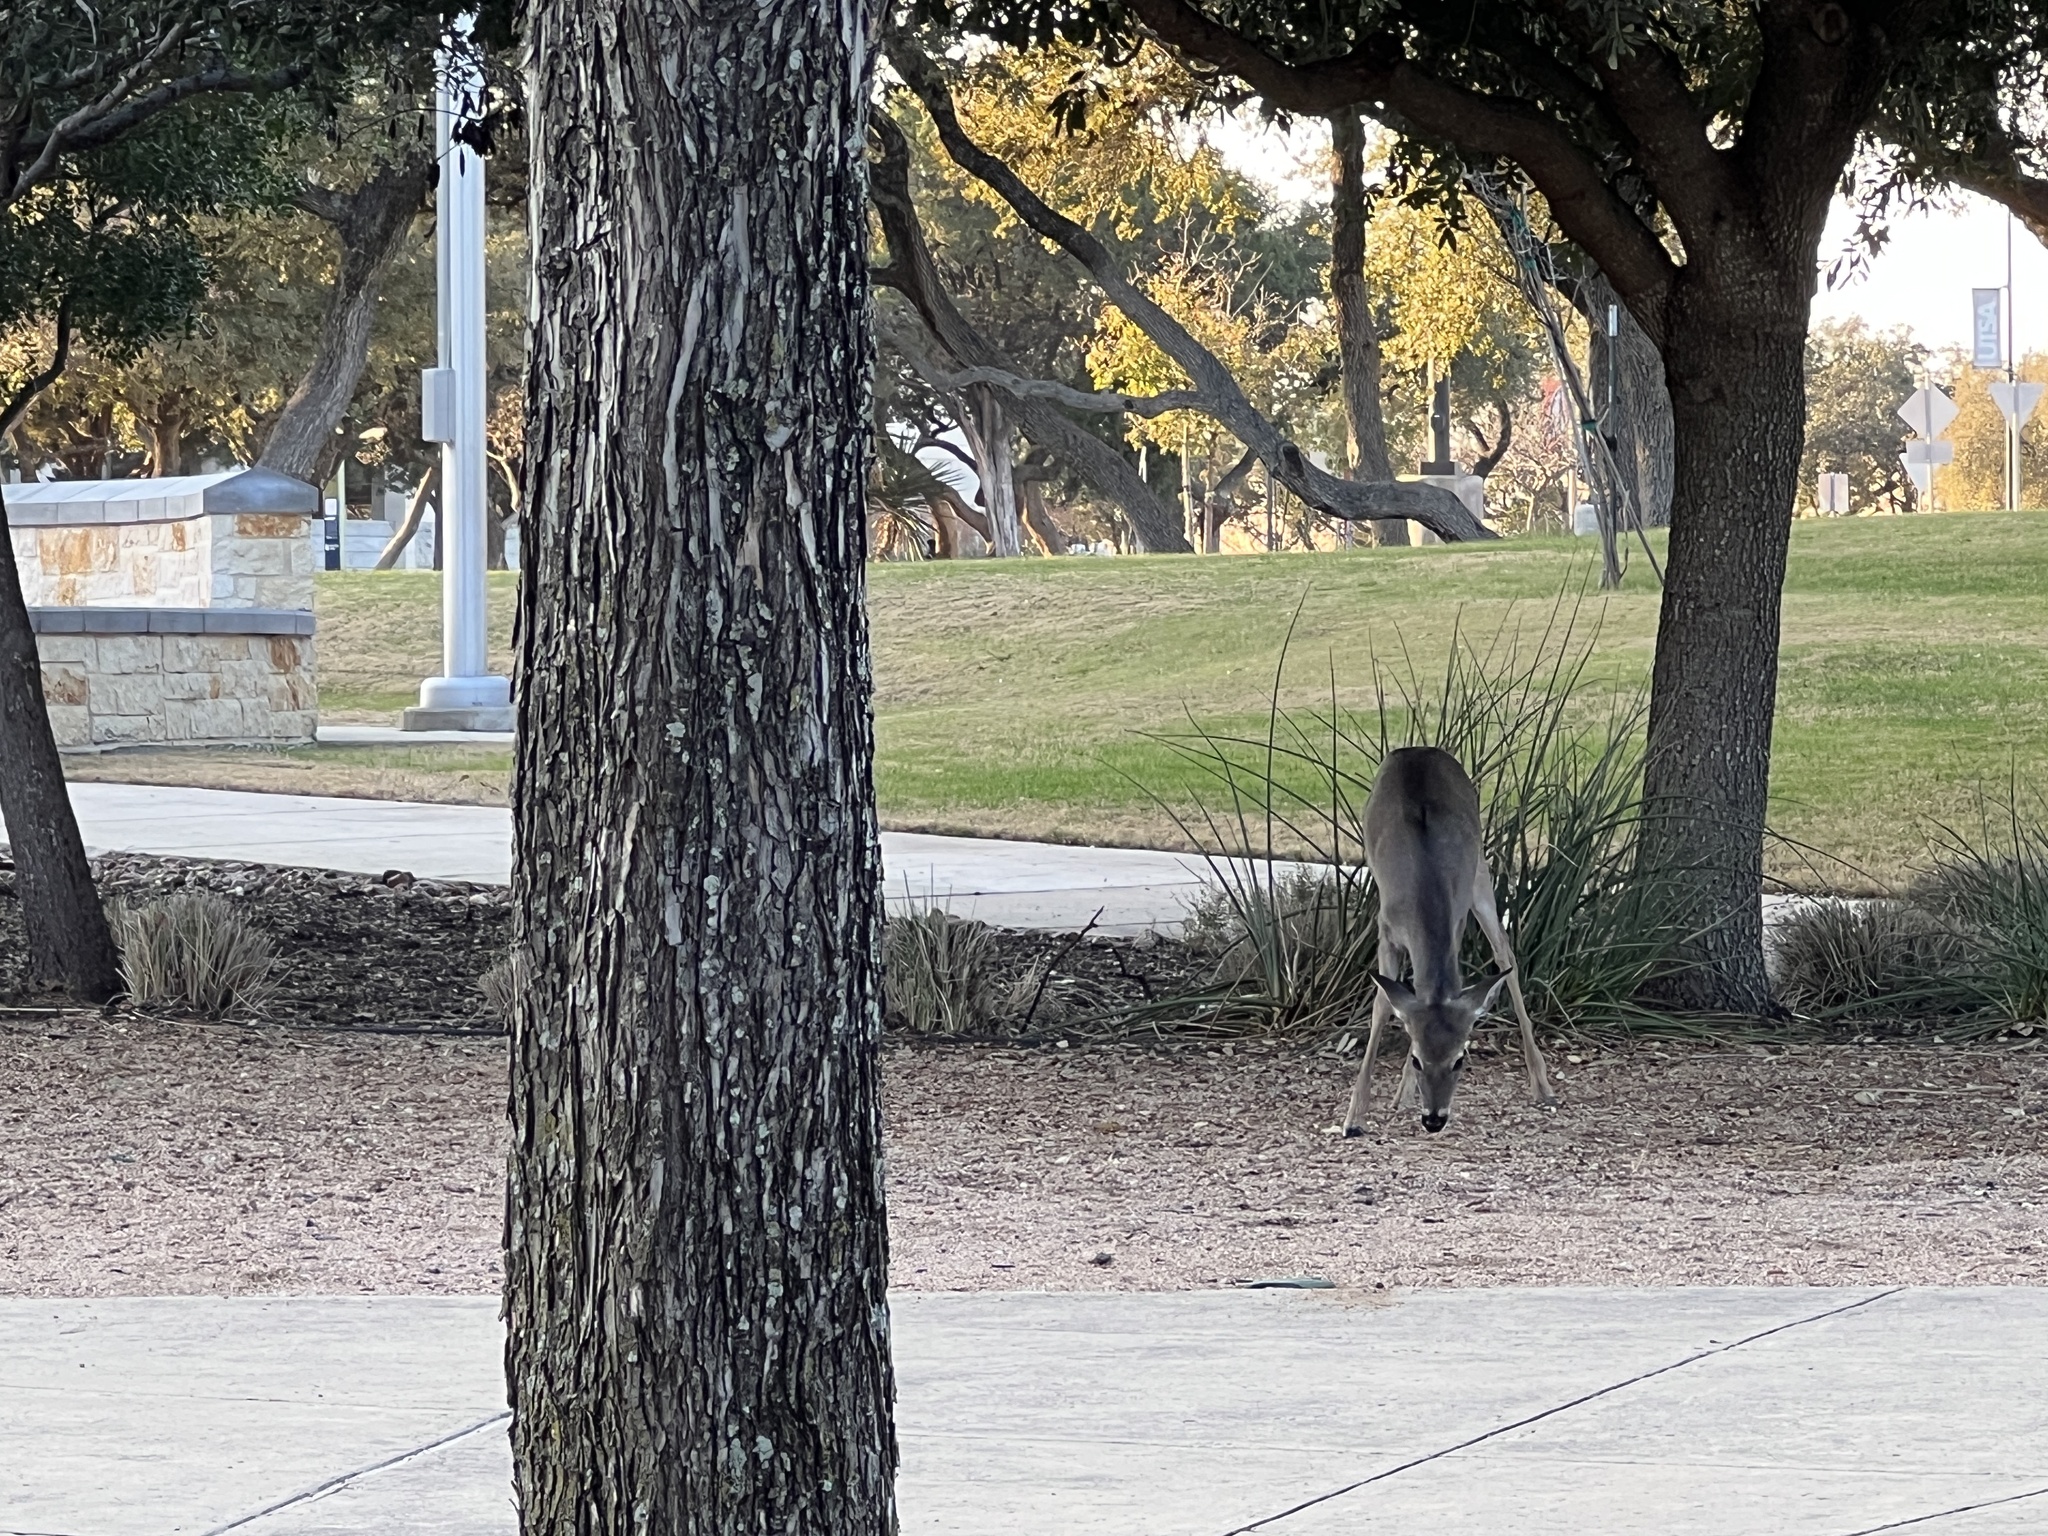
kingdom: Animalia
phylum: Chordata
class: Mammalia
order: Artiodactyla
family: Cervidae
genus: Odocoileus
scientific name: Odocoileus virginianus
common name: White-tailed deer
